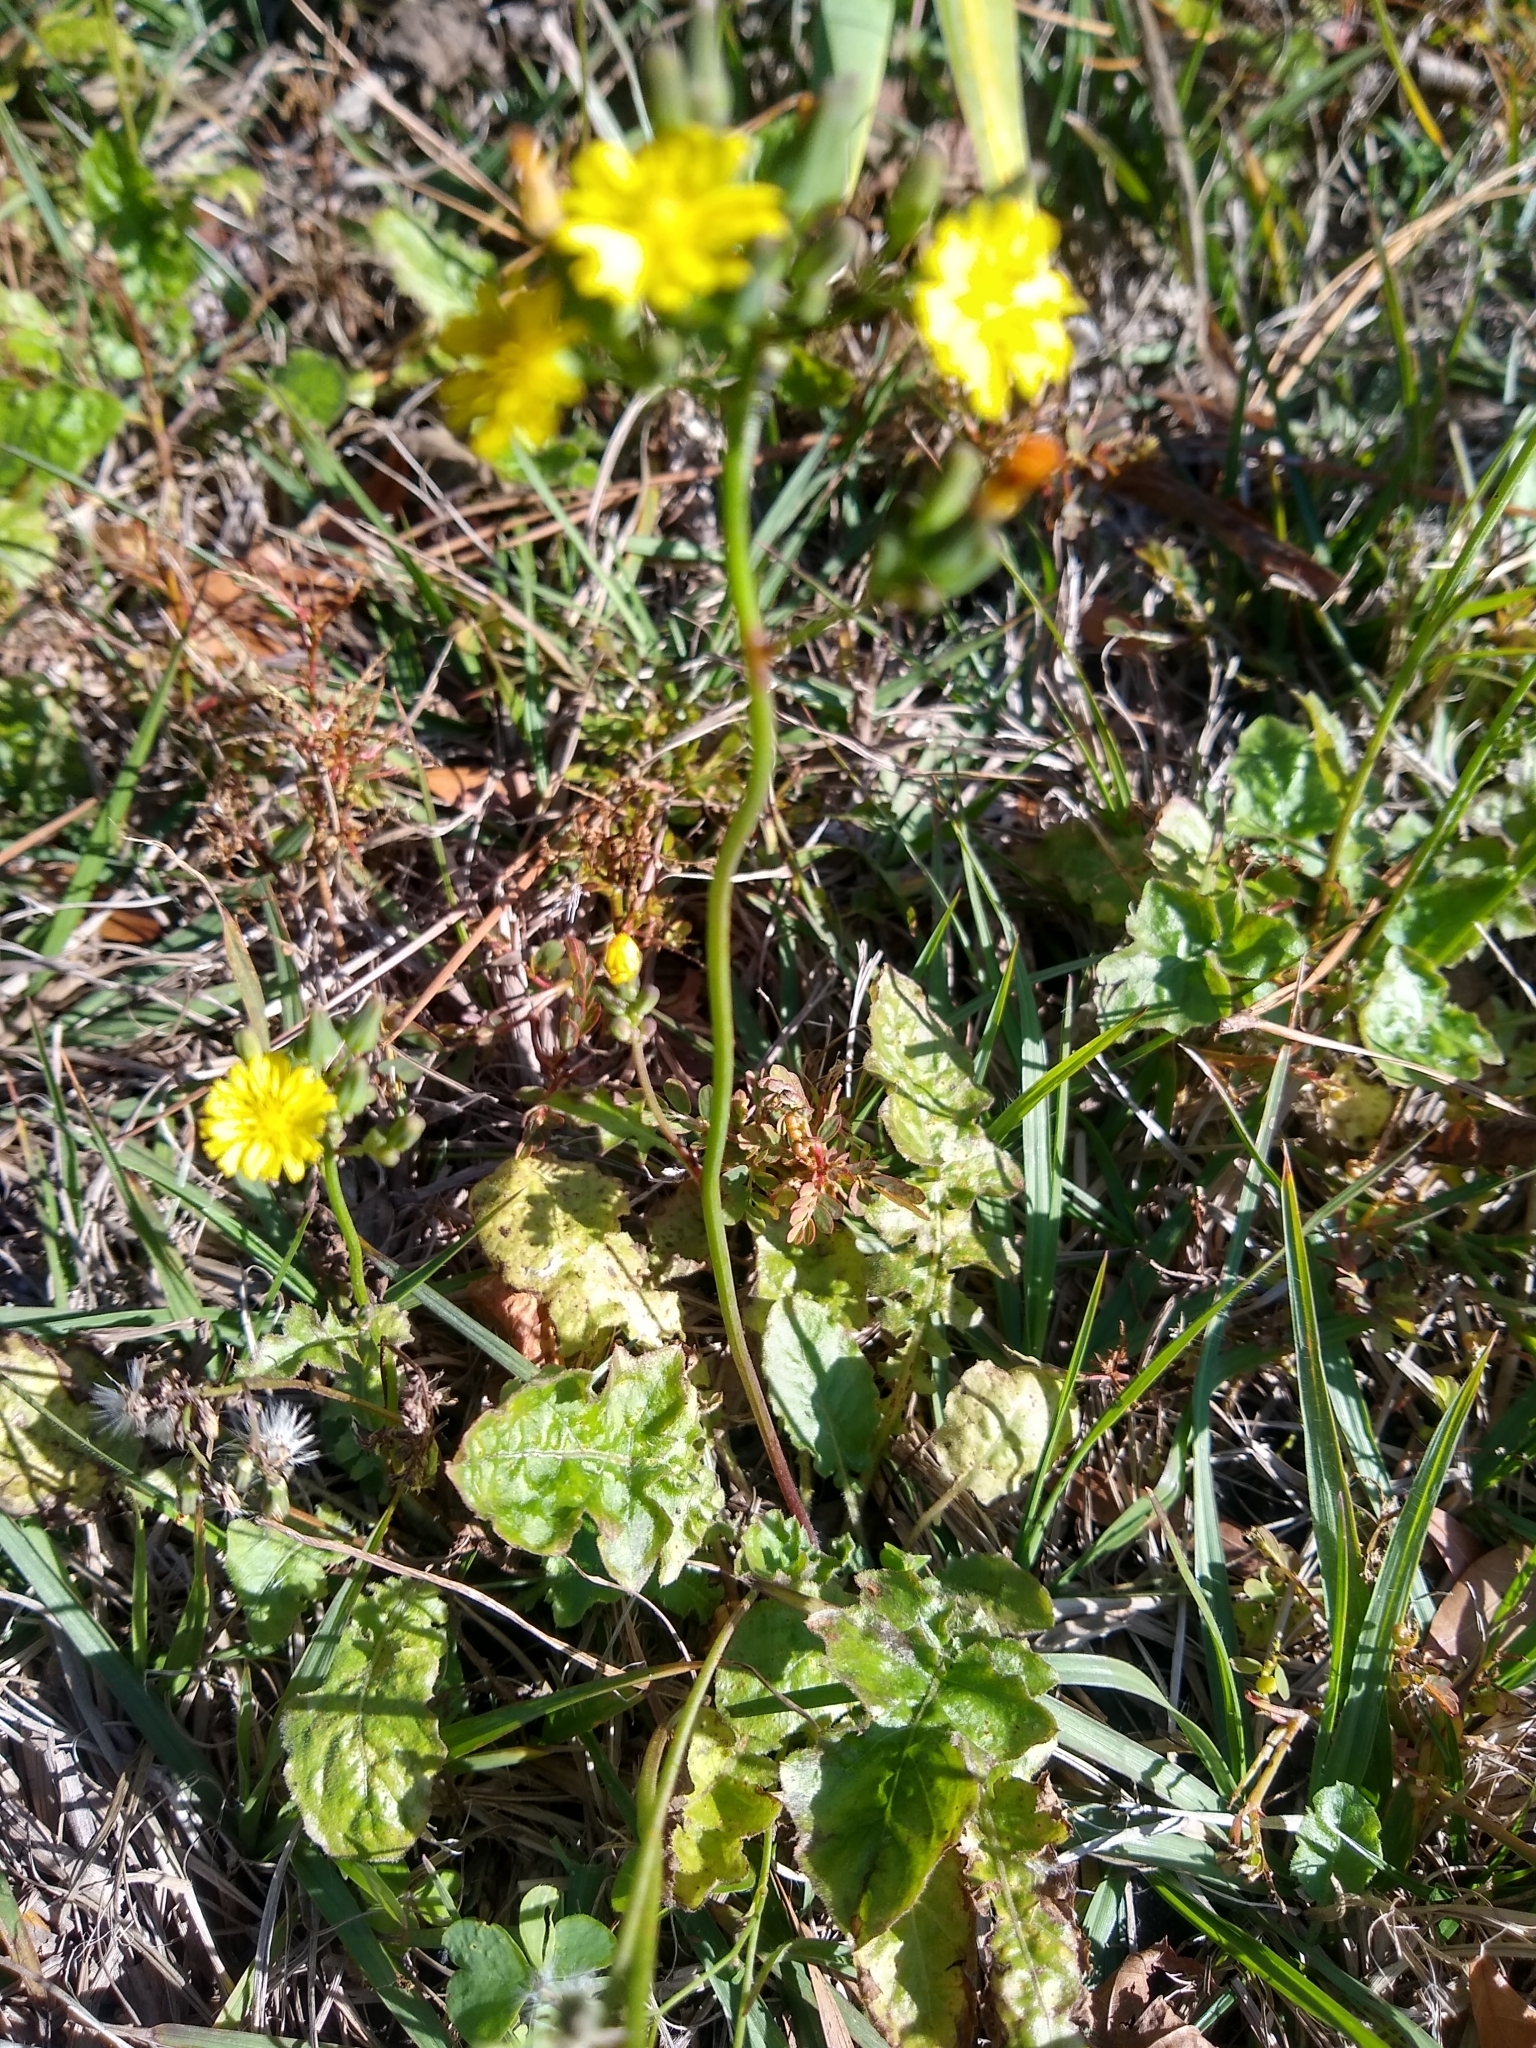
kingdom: Plantae
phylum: Tracheophyta
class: Magnoliopsida
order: Asterales
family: Asteraceae
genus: Youngia
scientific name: Youngia japonica
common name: Oriental false hawksbeard
